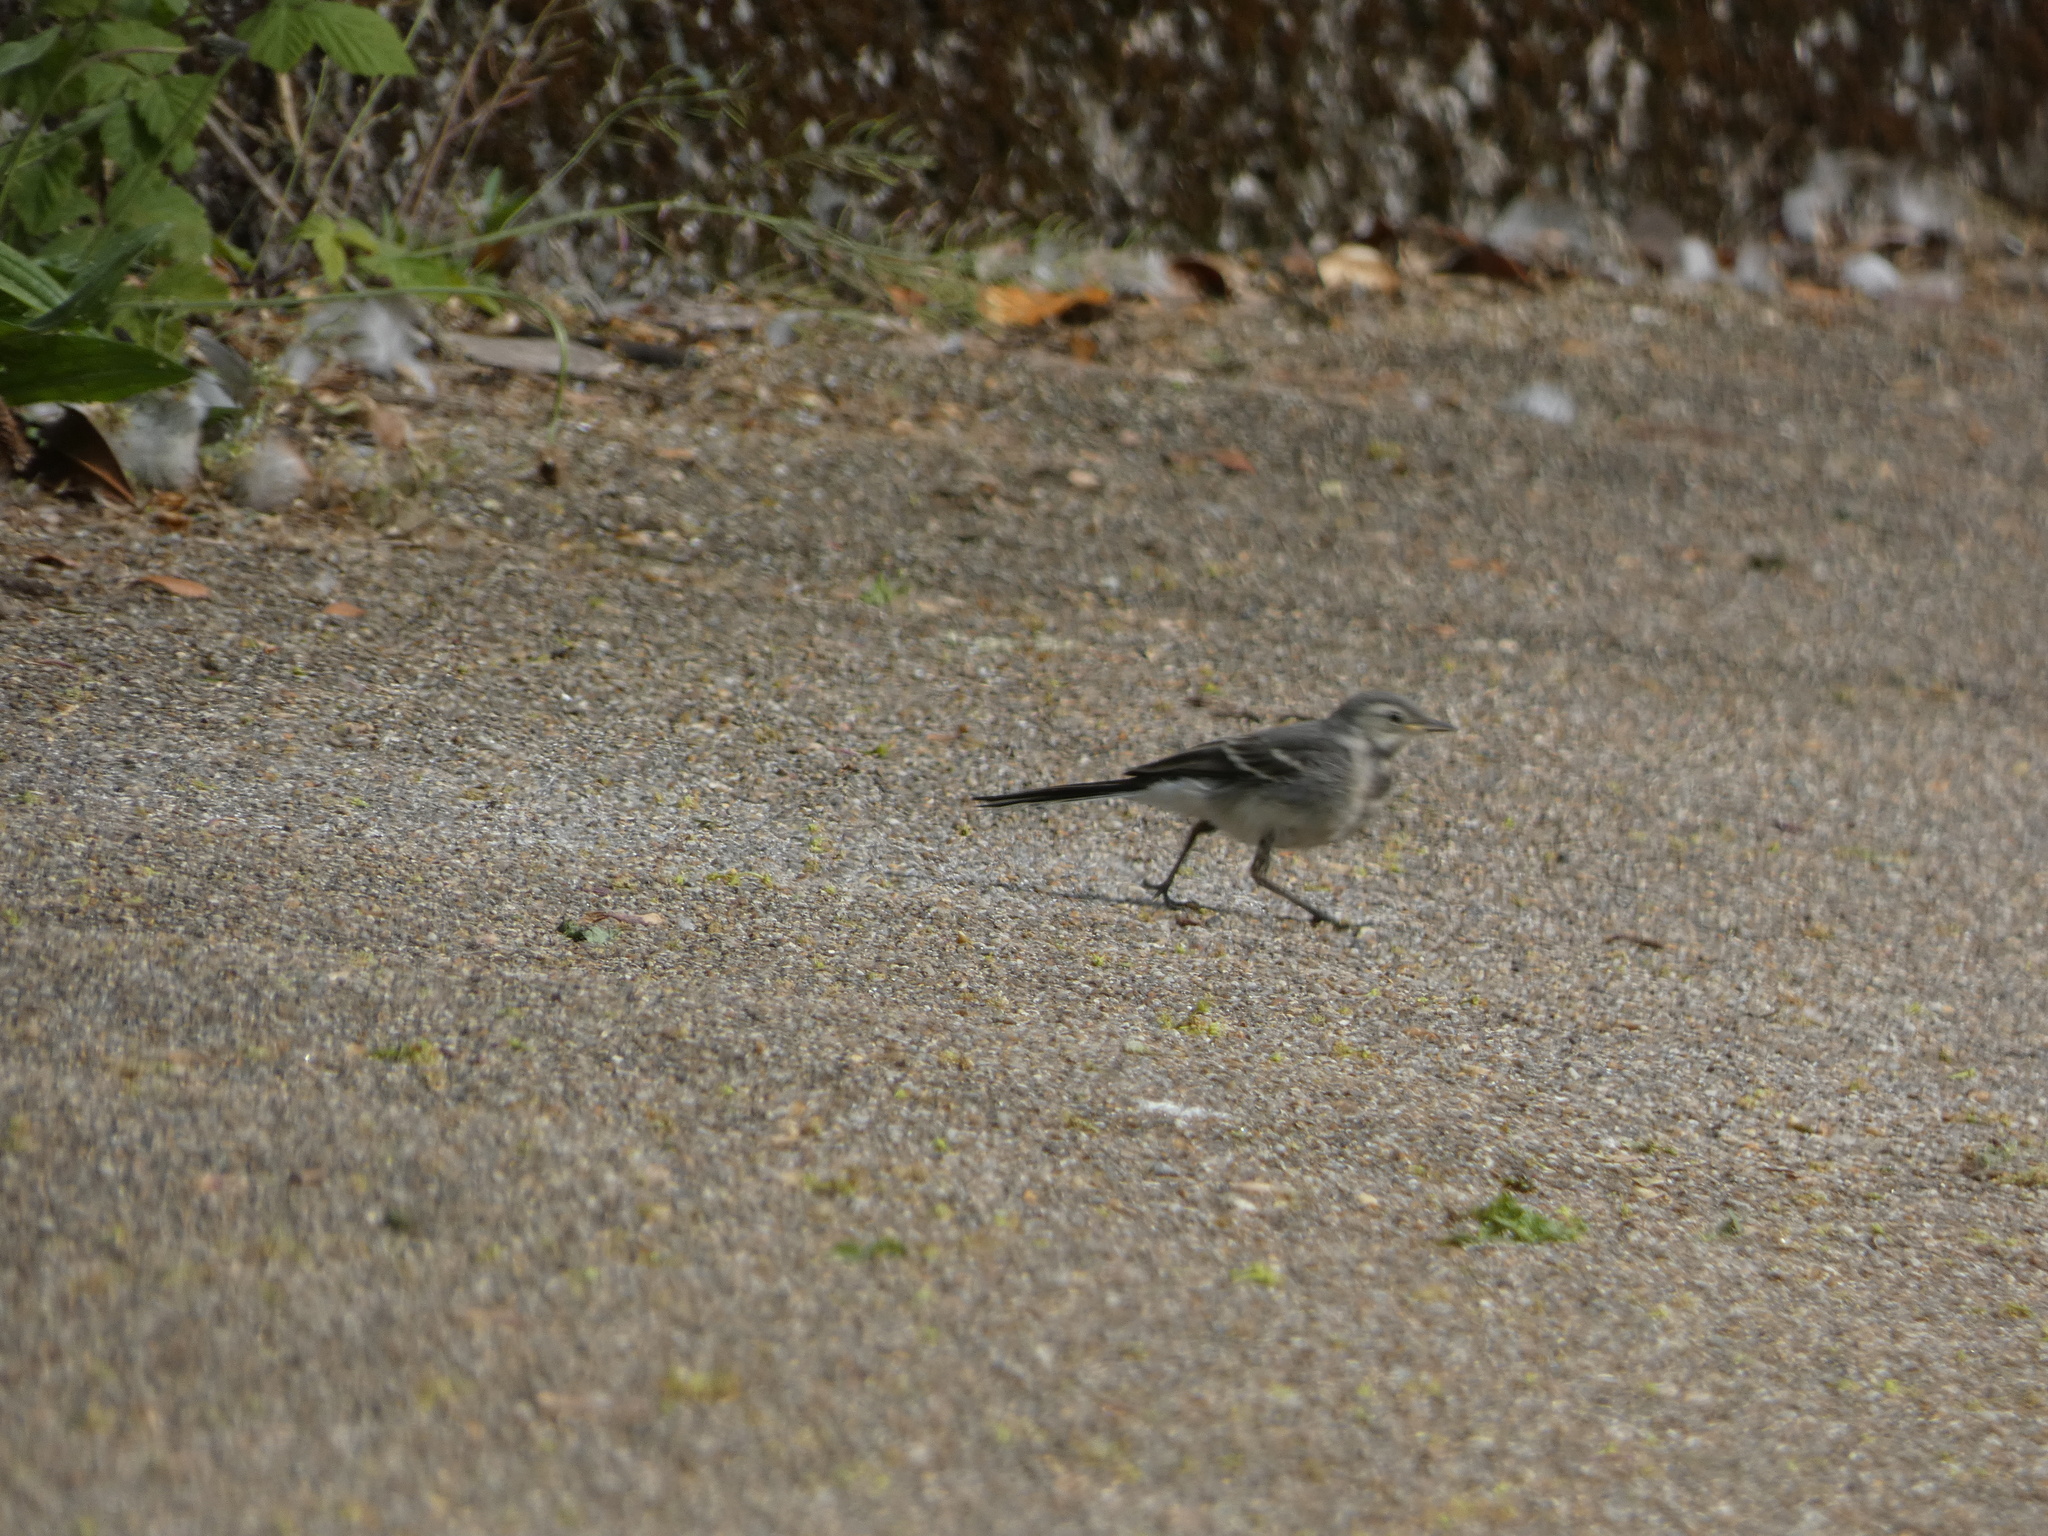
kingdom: Animalia
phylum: Chordata
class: Aves
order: Passeriformes
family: Motacillidae
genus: Motacilla
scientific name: Motacilla alba
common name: White wagtail
